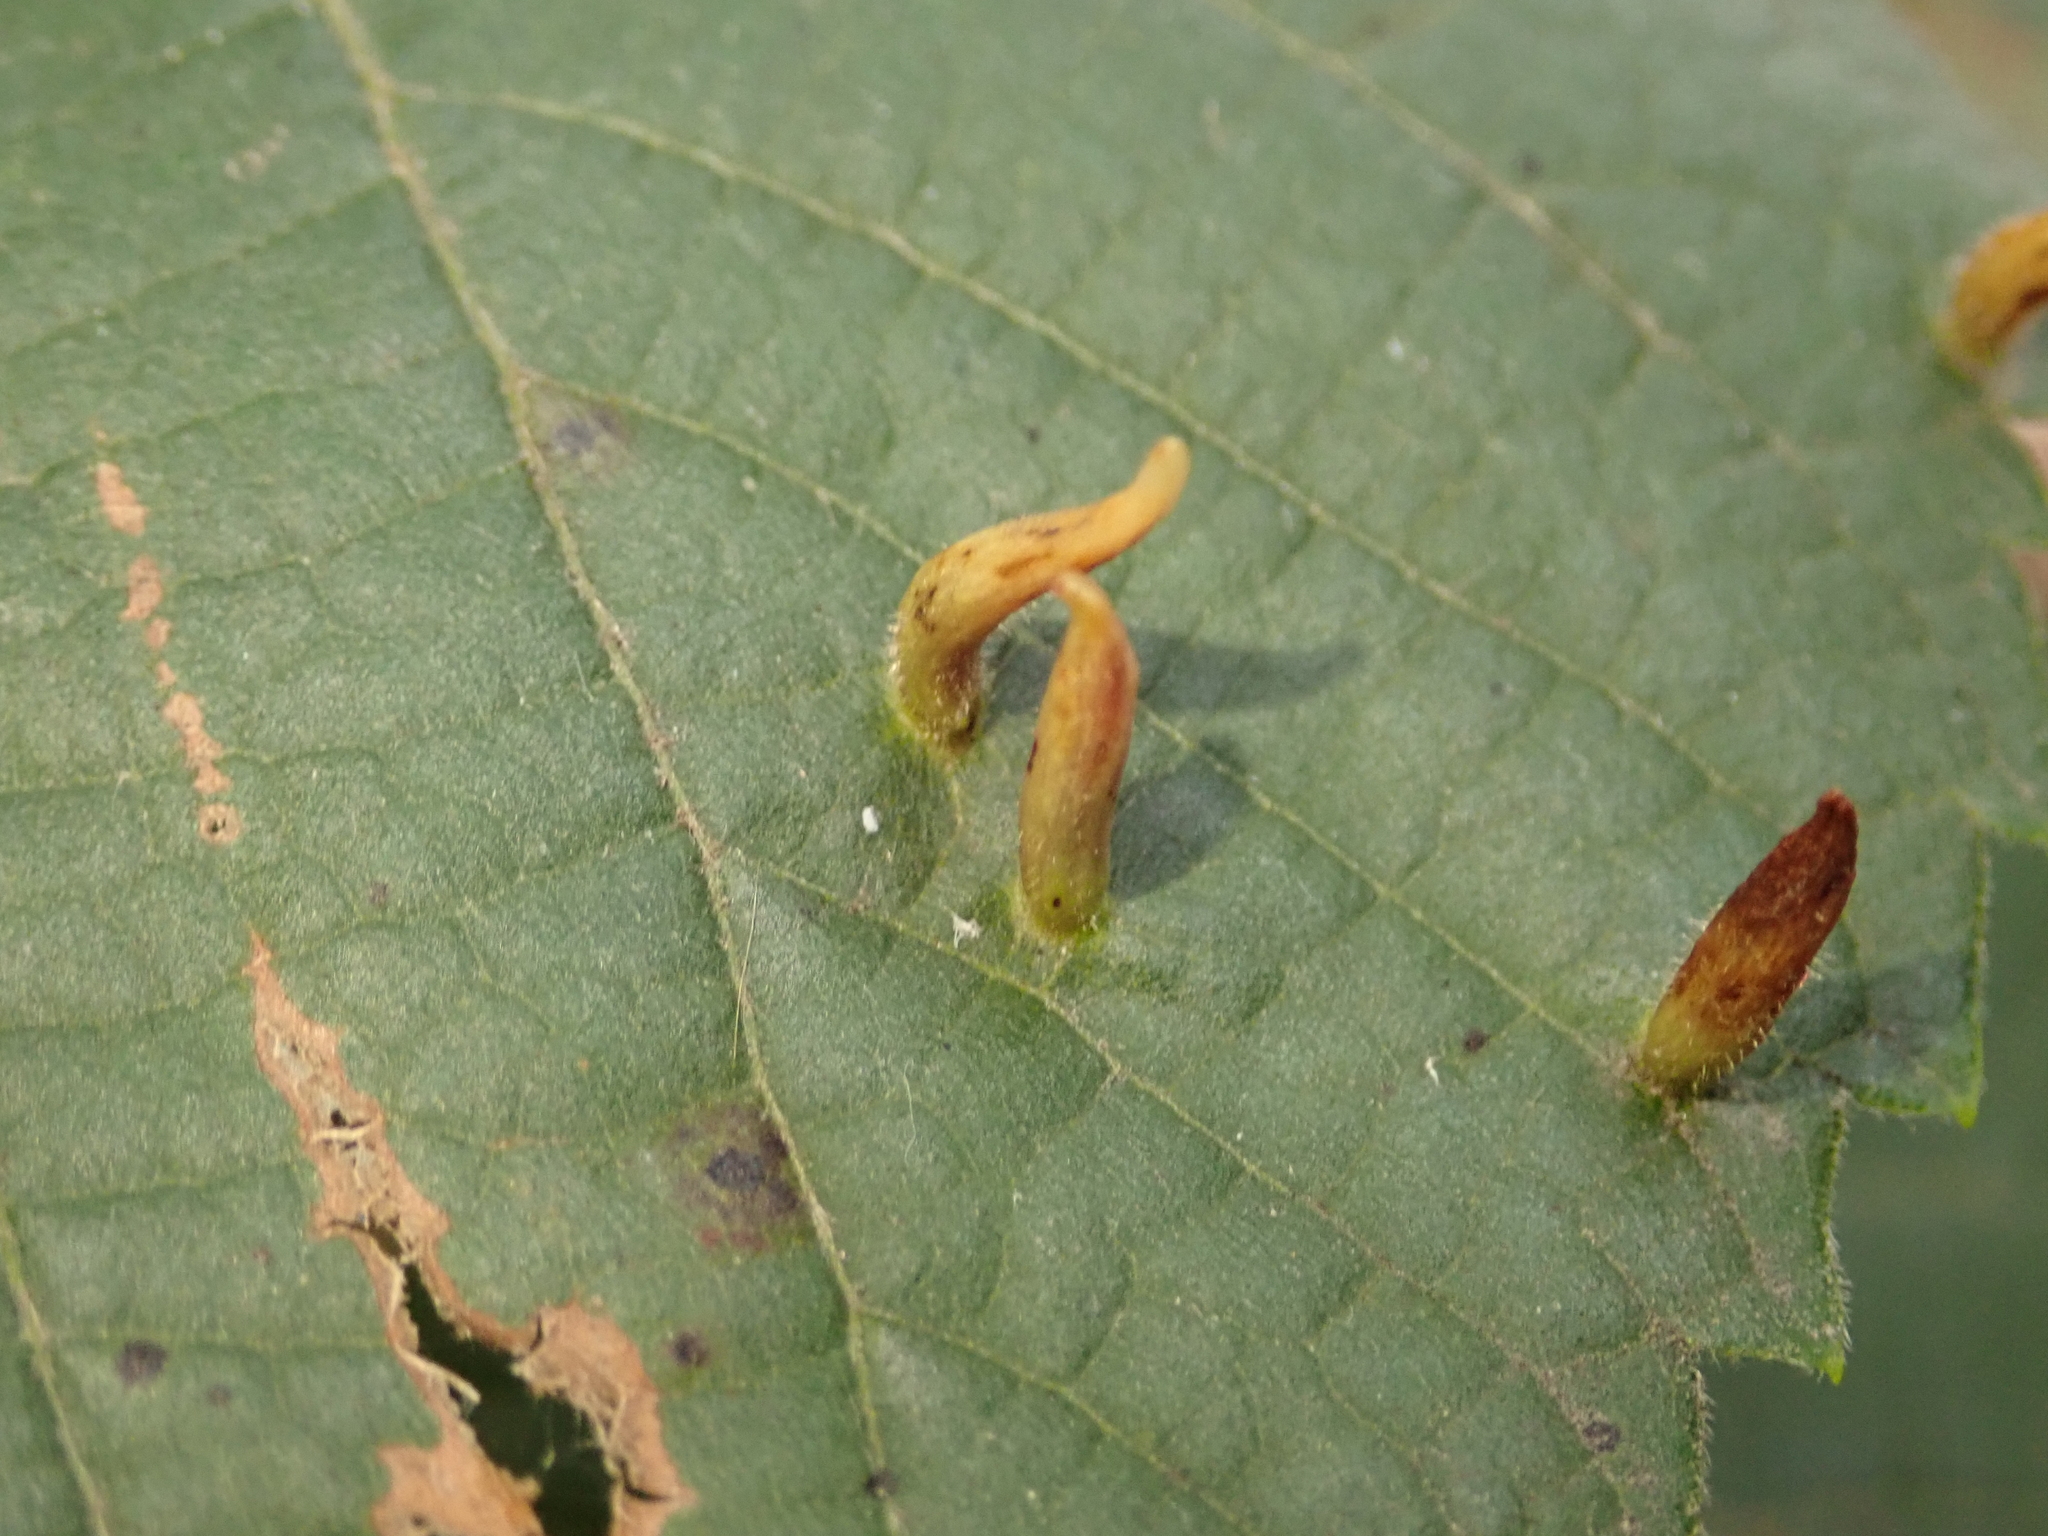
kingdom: Animalia
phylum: Arthropoda
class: Arachnida
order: Trombidiformes
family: Eriophyidae
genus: Eriophyes
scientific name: Eriophyes tiliae
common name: Red nail gall mite
